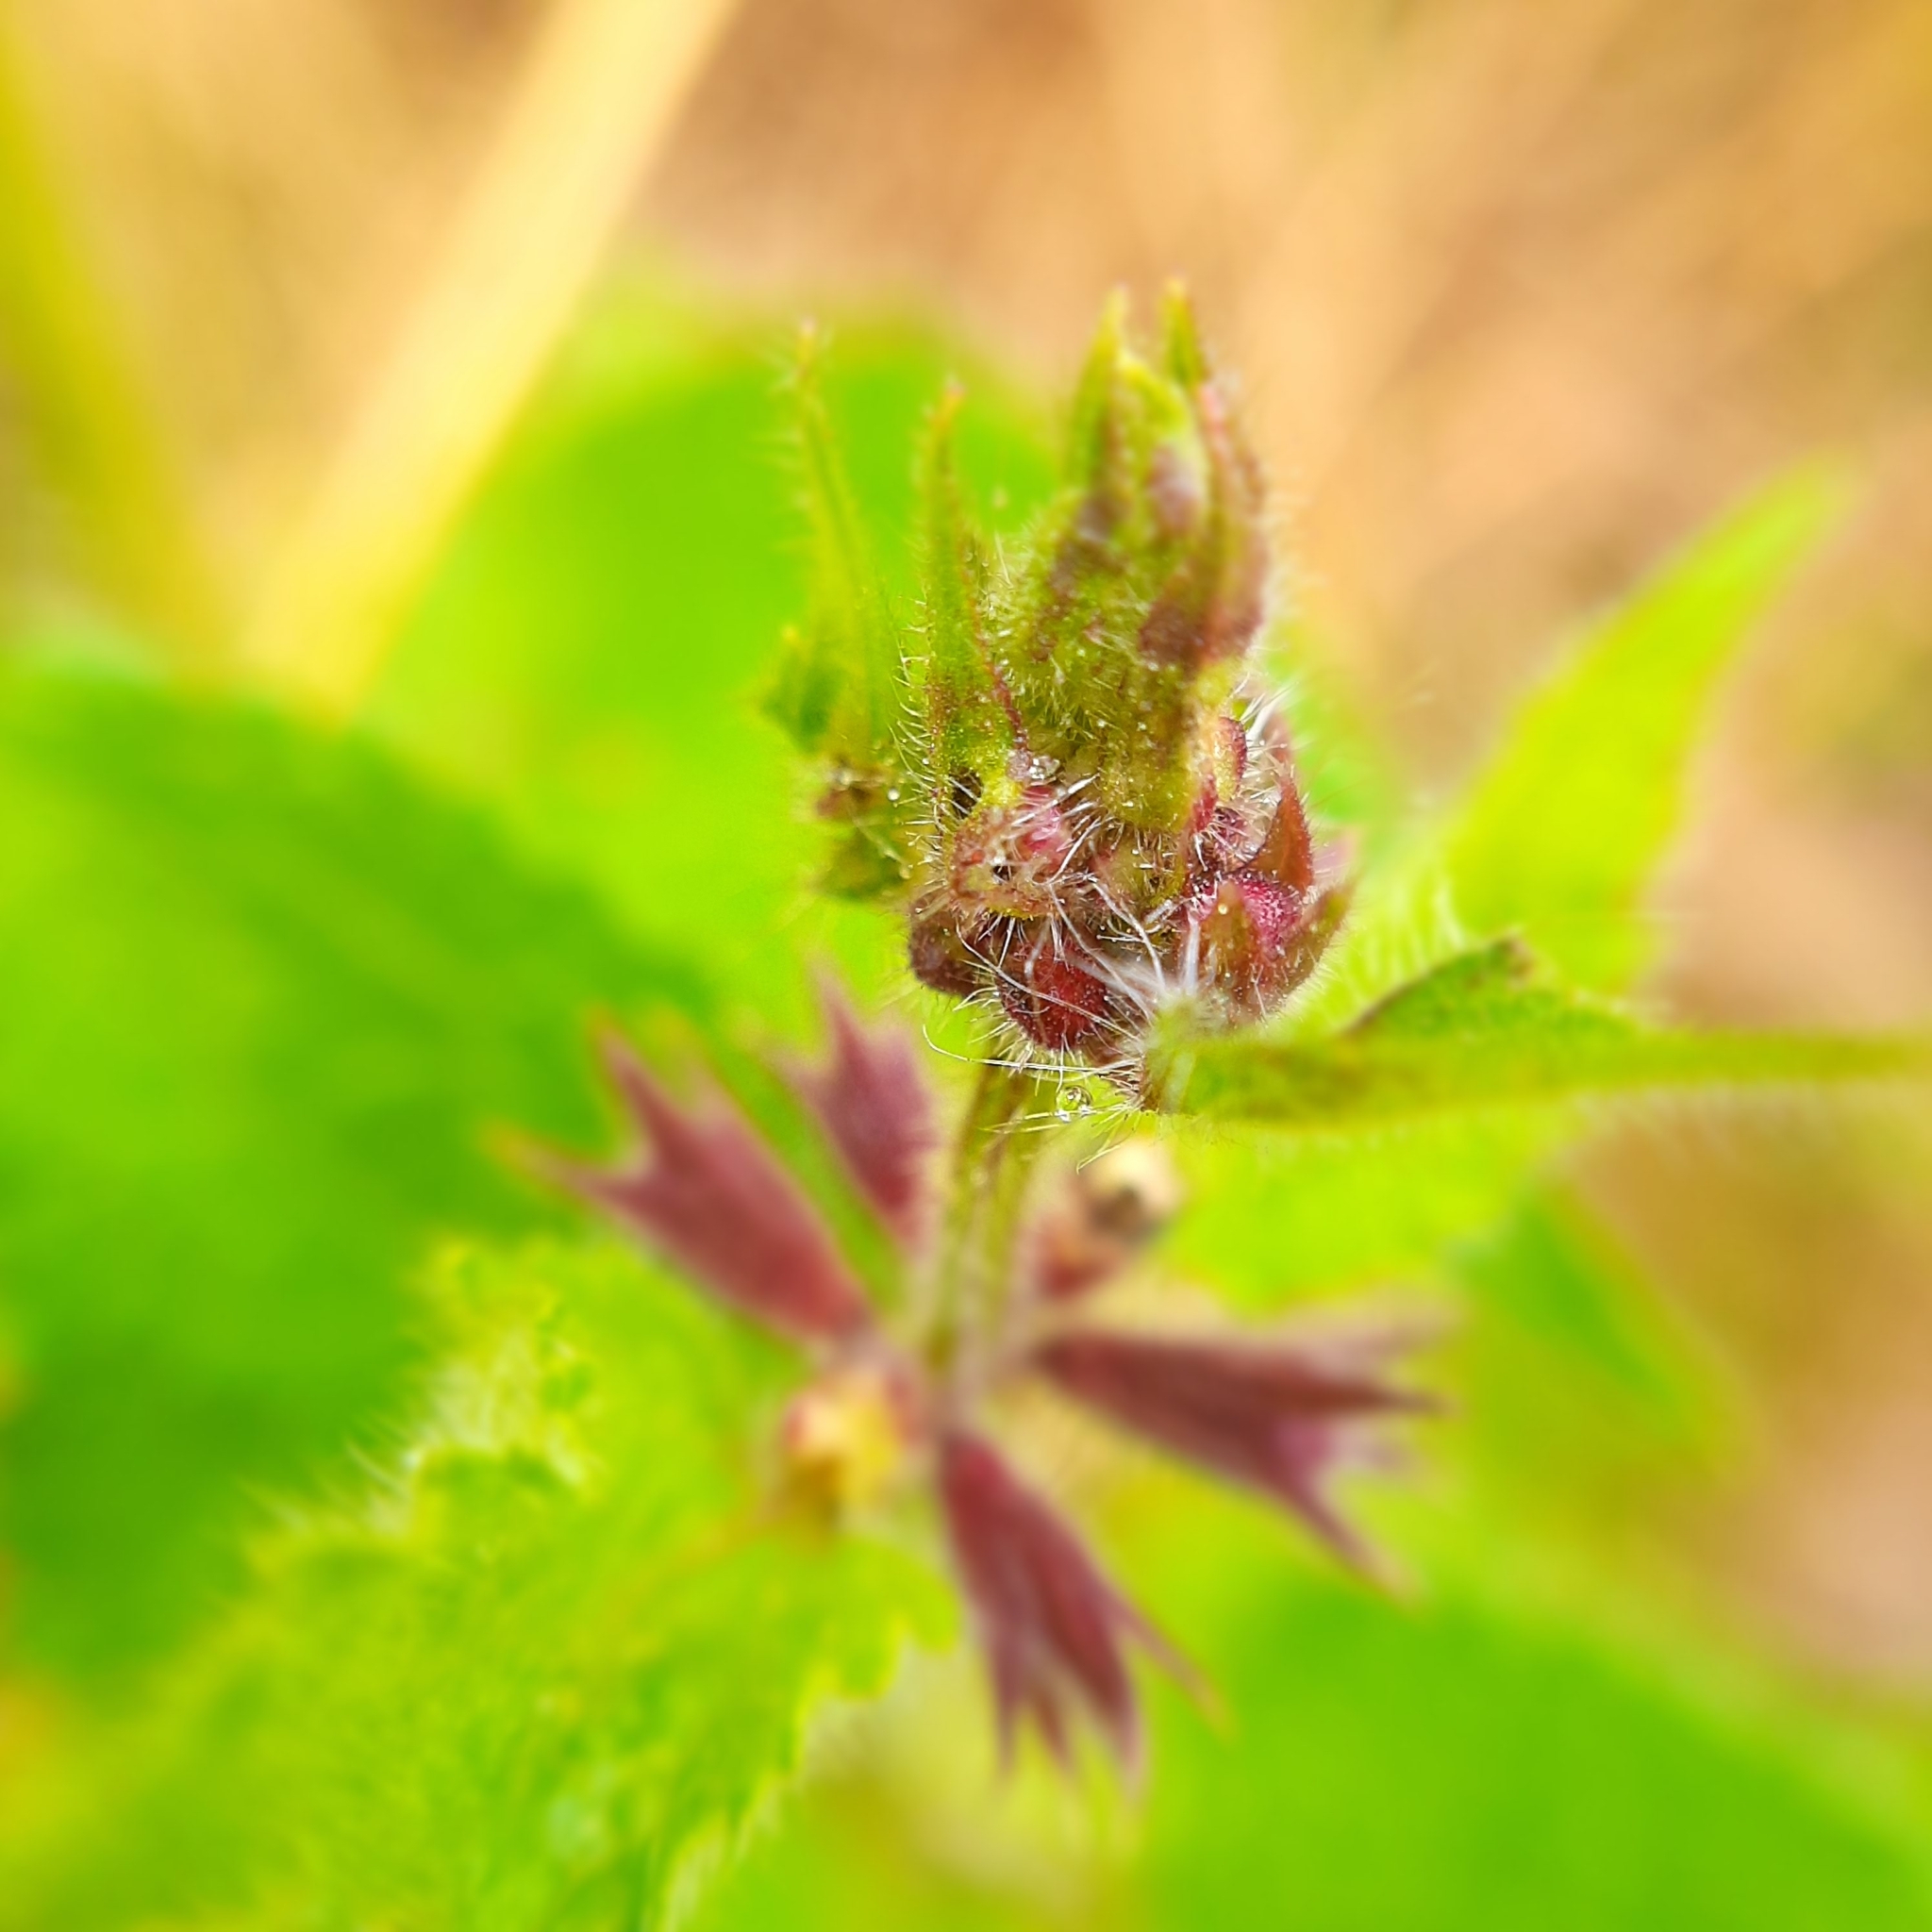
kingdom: Plantae
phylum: Tracheophyta
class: Magnoliopsida
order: Lamiales
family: Lamiaceae
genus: Stachys
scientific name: Stachys sylvatica
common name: Hedge woundwort
